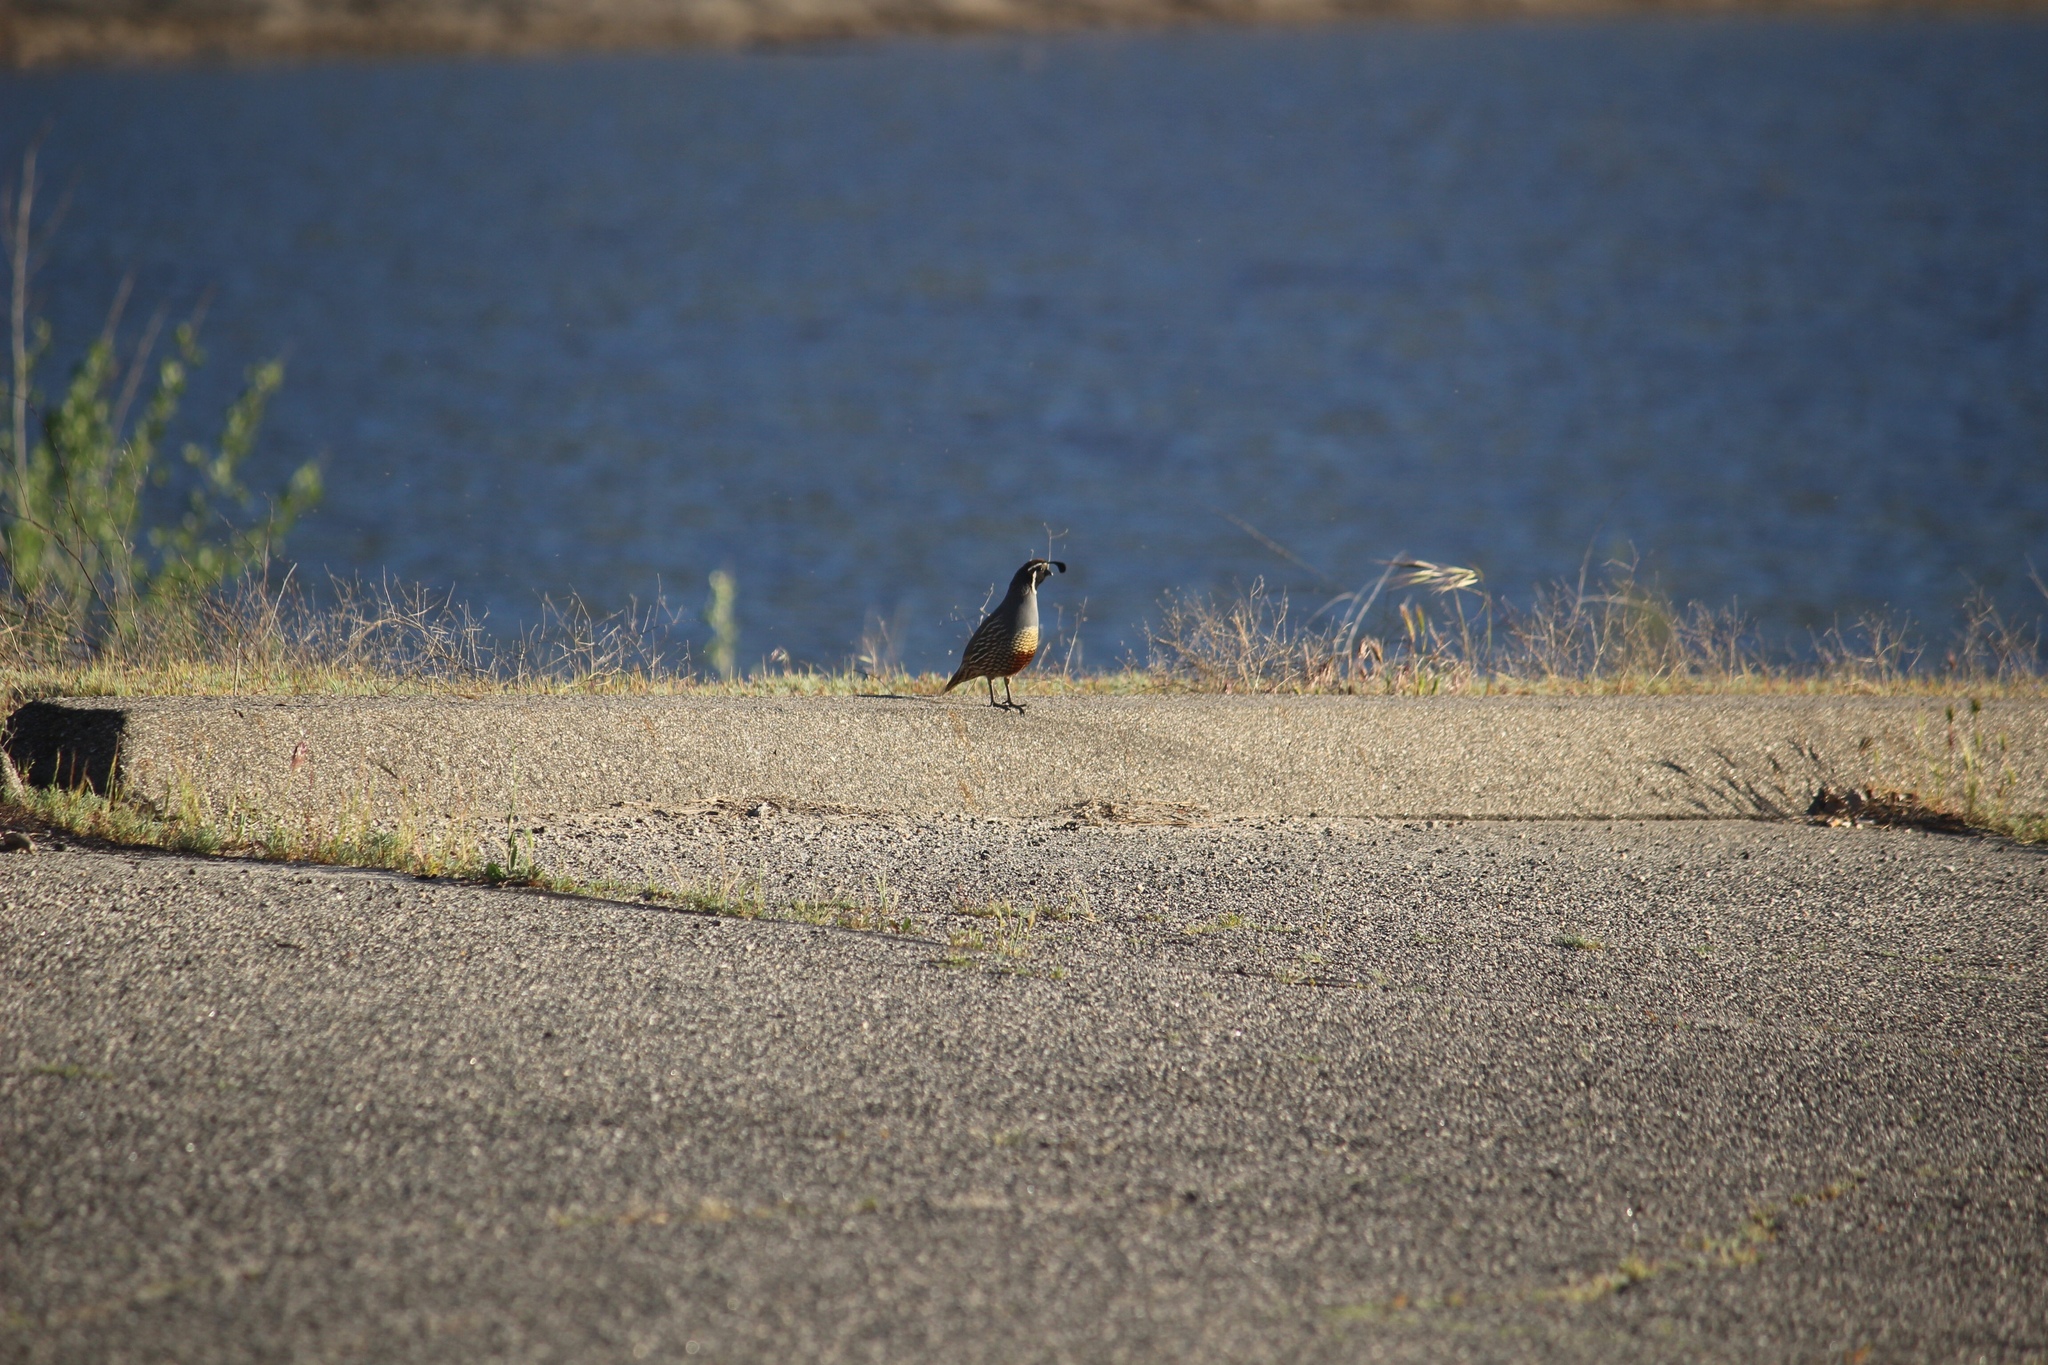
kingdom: Animalia
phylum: Chordata
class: Aves
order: Galliformes
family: Odontophoridae
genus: Callipepla
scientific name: Callipepla californica
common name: California quail
